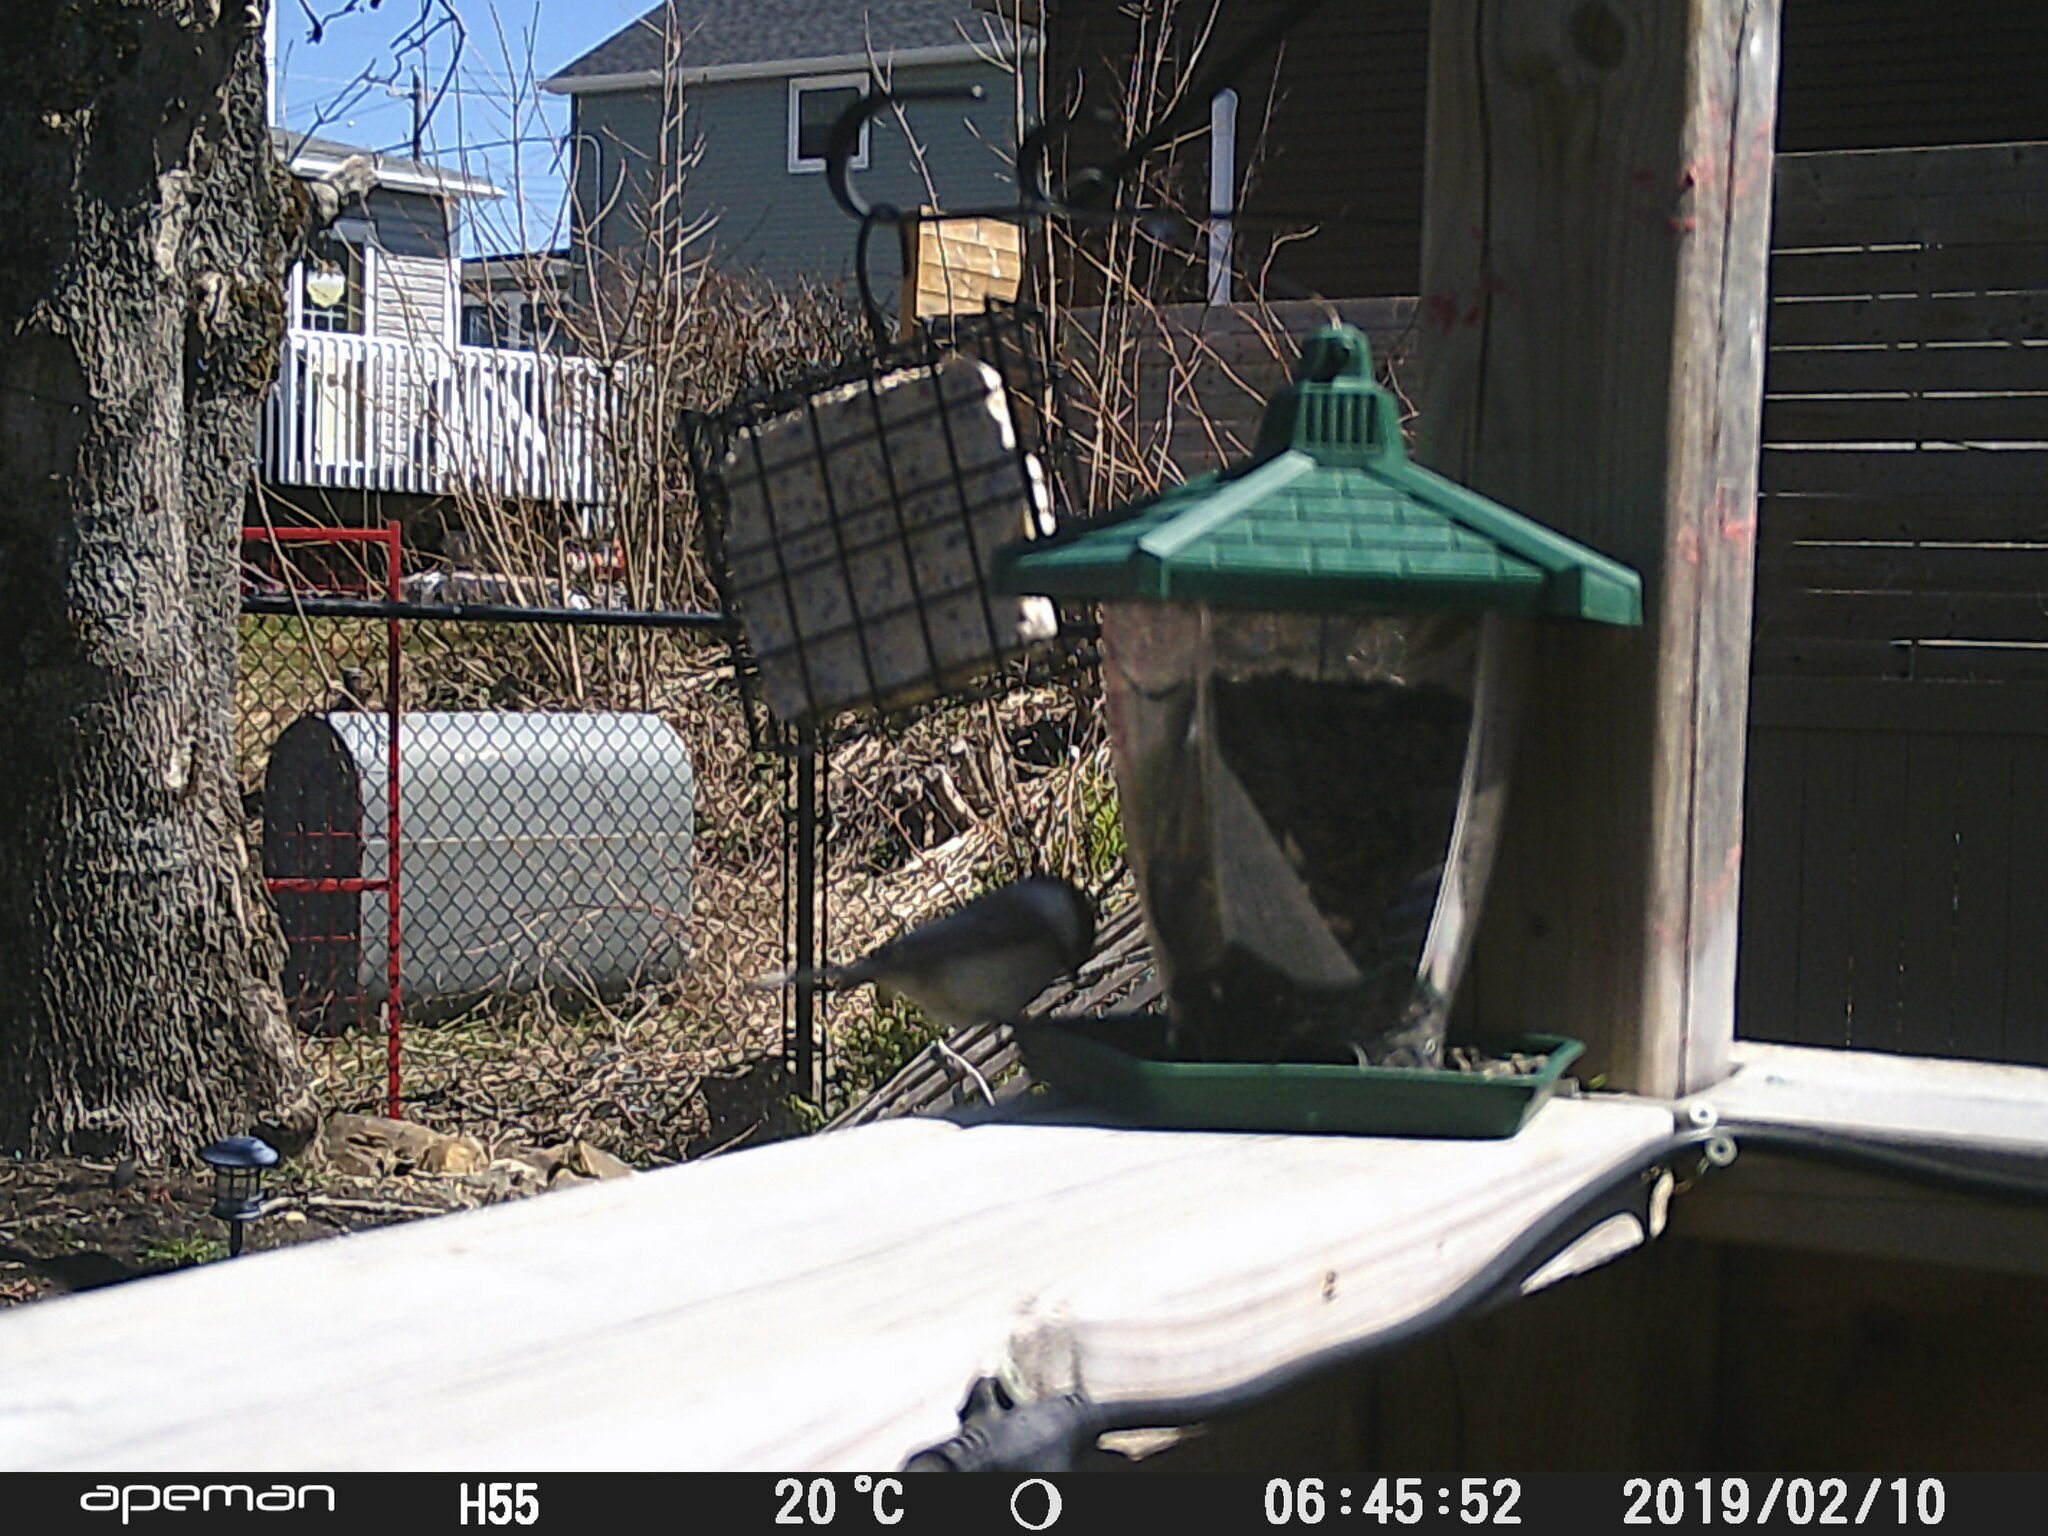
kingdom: Animalia
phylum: Chordata
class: Aves
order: Passeriformes
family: Paridae
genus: Poecile
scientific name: Poecile atricapillus
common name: Black-capped chickadee
